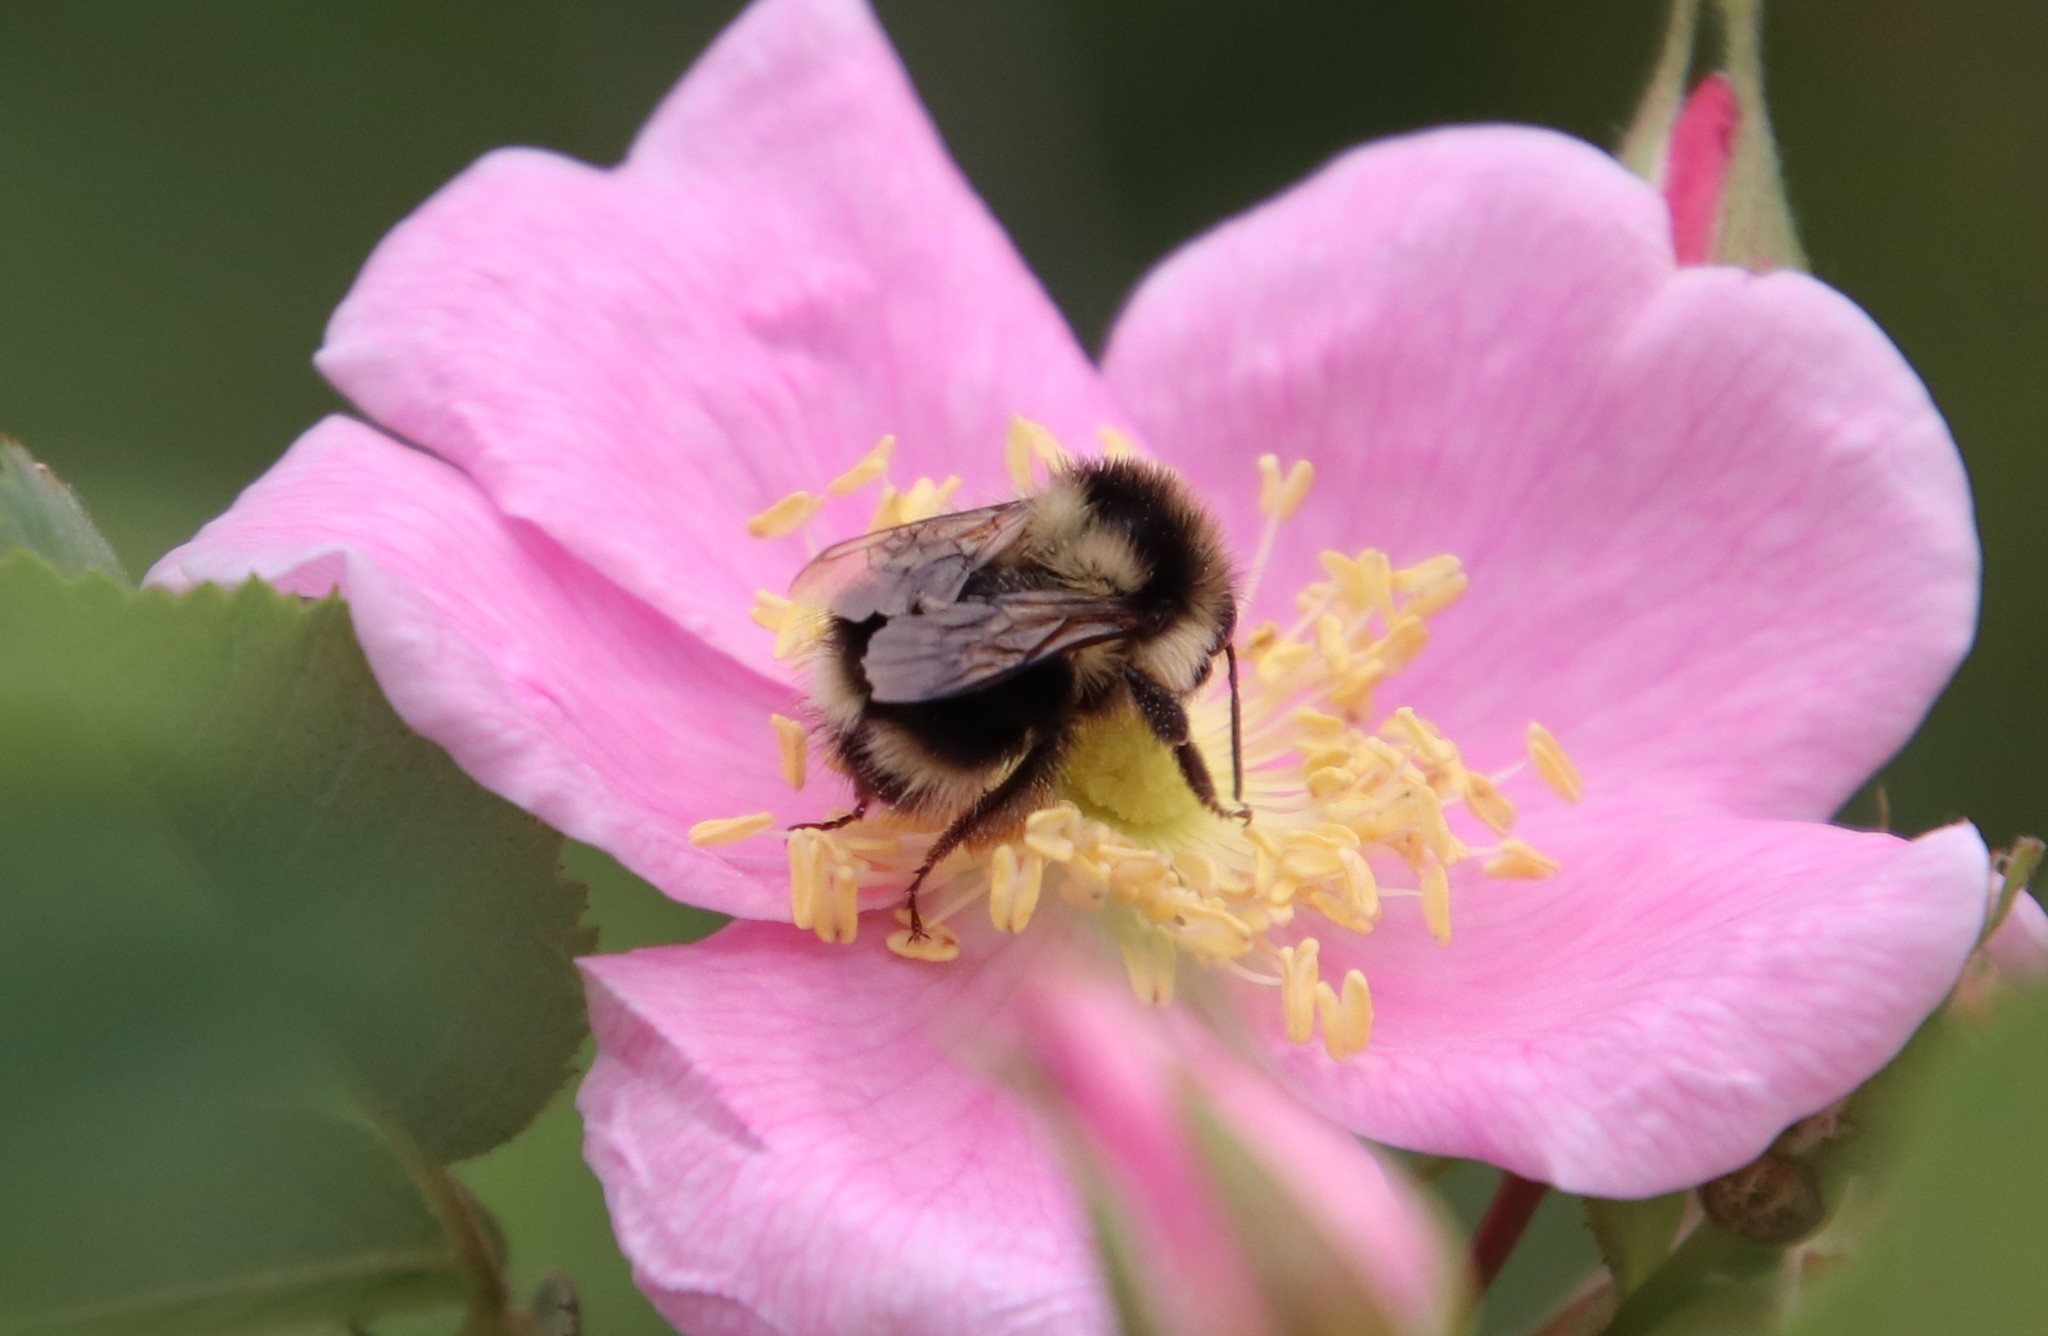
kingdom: Animalia
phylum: Arthropoda
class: Insecta
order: Hymenoptera
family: Apidae
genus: Bombus
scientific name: Bombus melanopygus
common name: Black tail bumble bee
